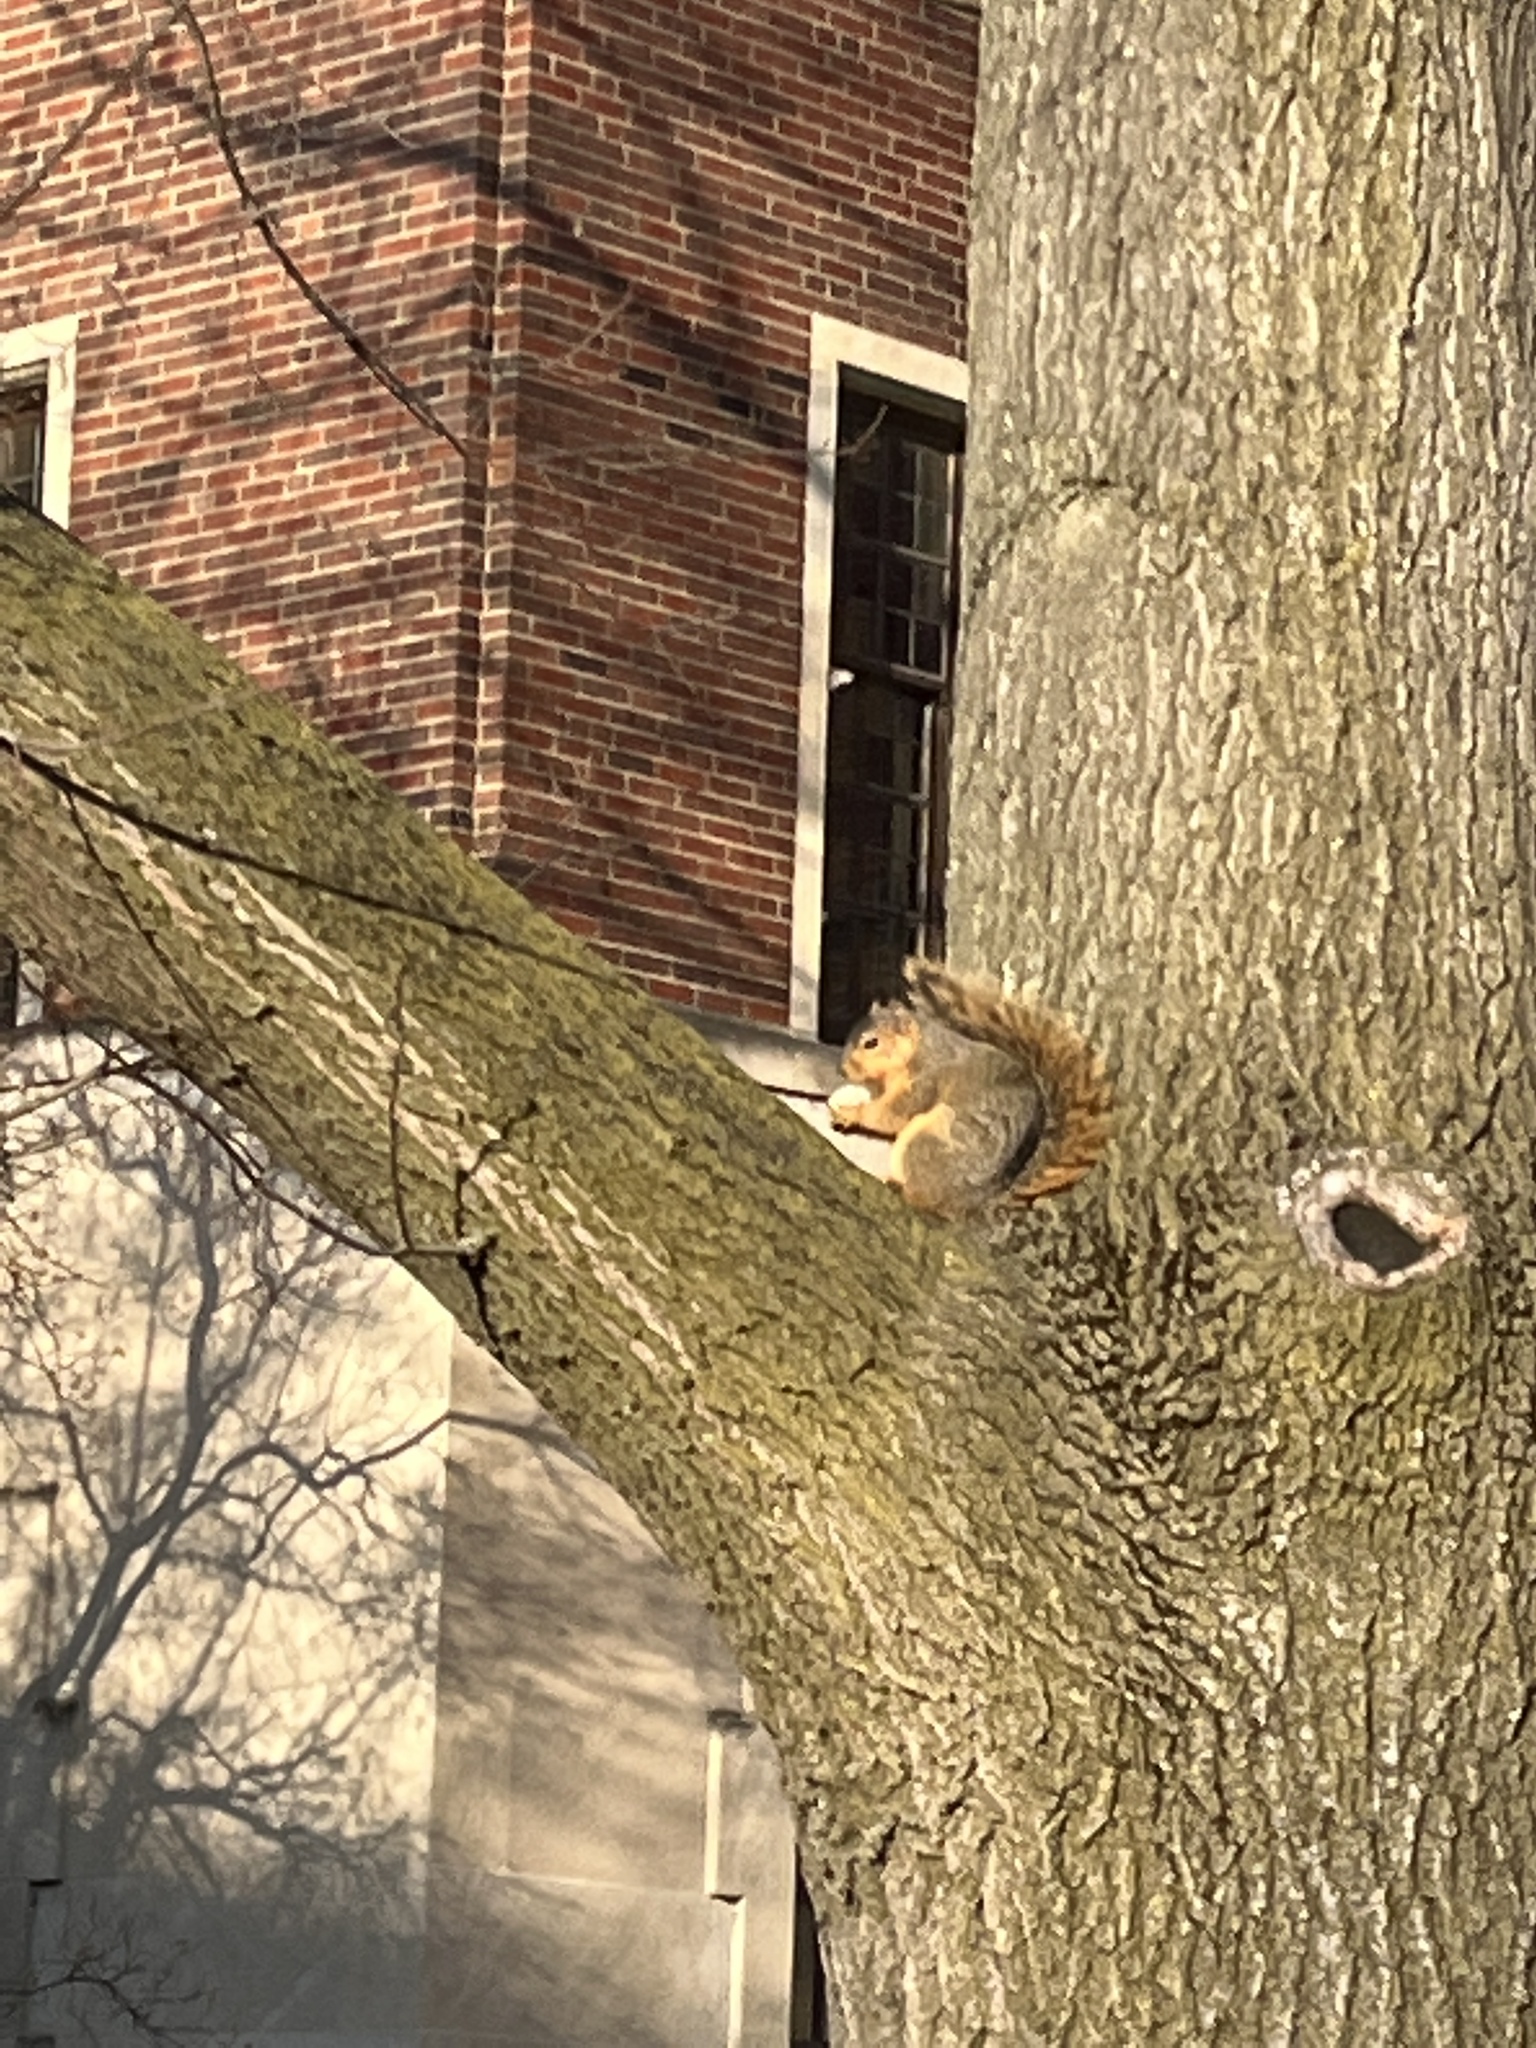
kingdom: Animalia
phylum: Chordata
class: Mammalia
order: Rodentia
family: Sciuridae
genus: Sciurus
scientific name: Sciurus niger
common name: Fox squirrel
